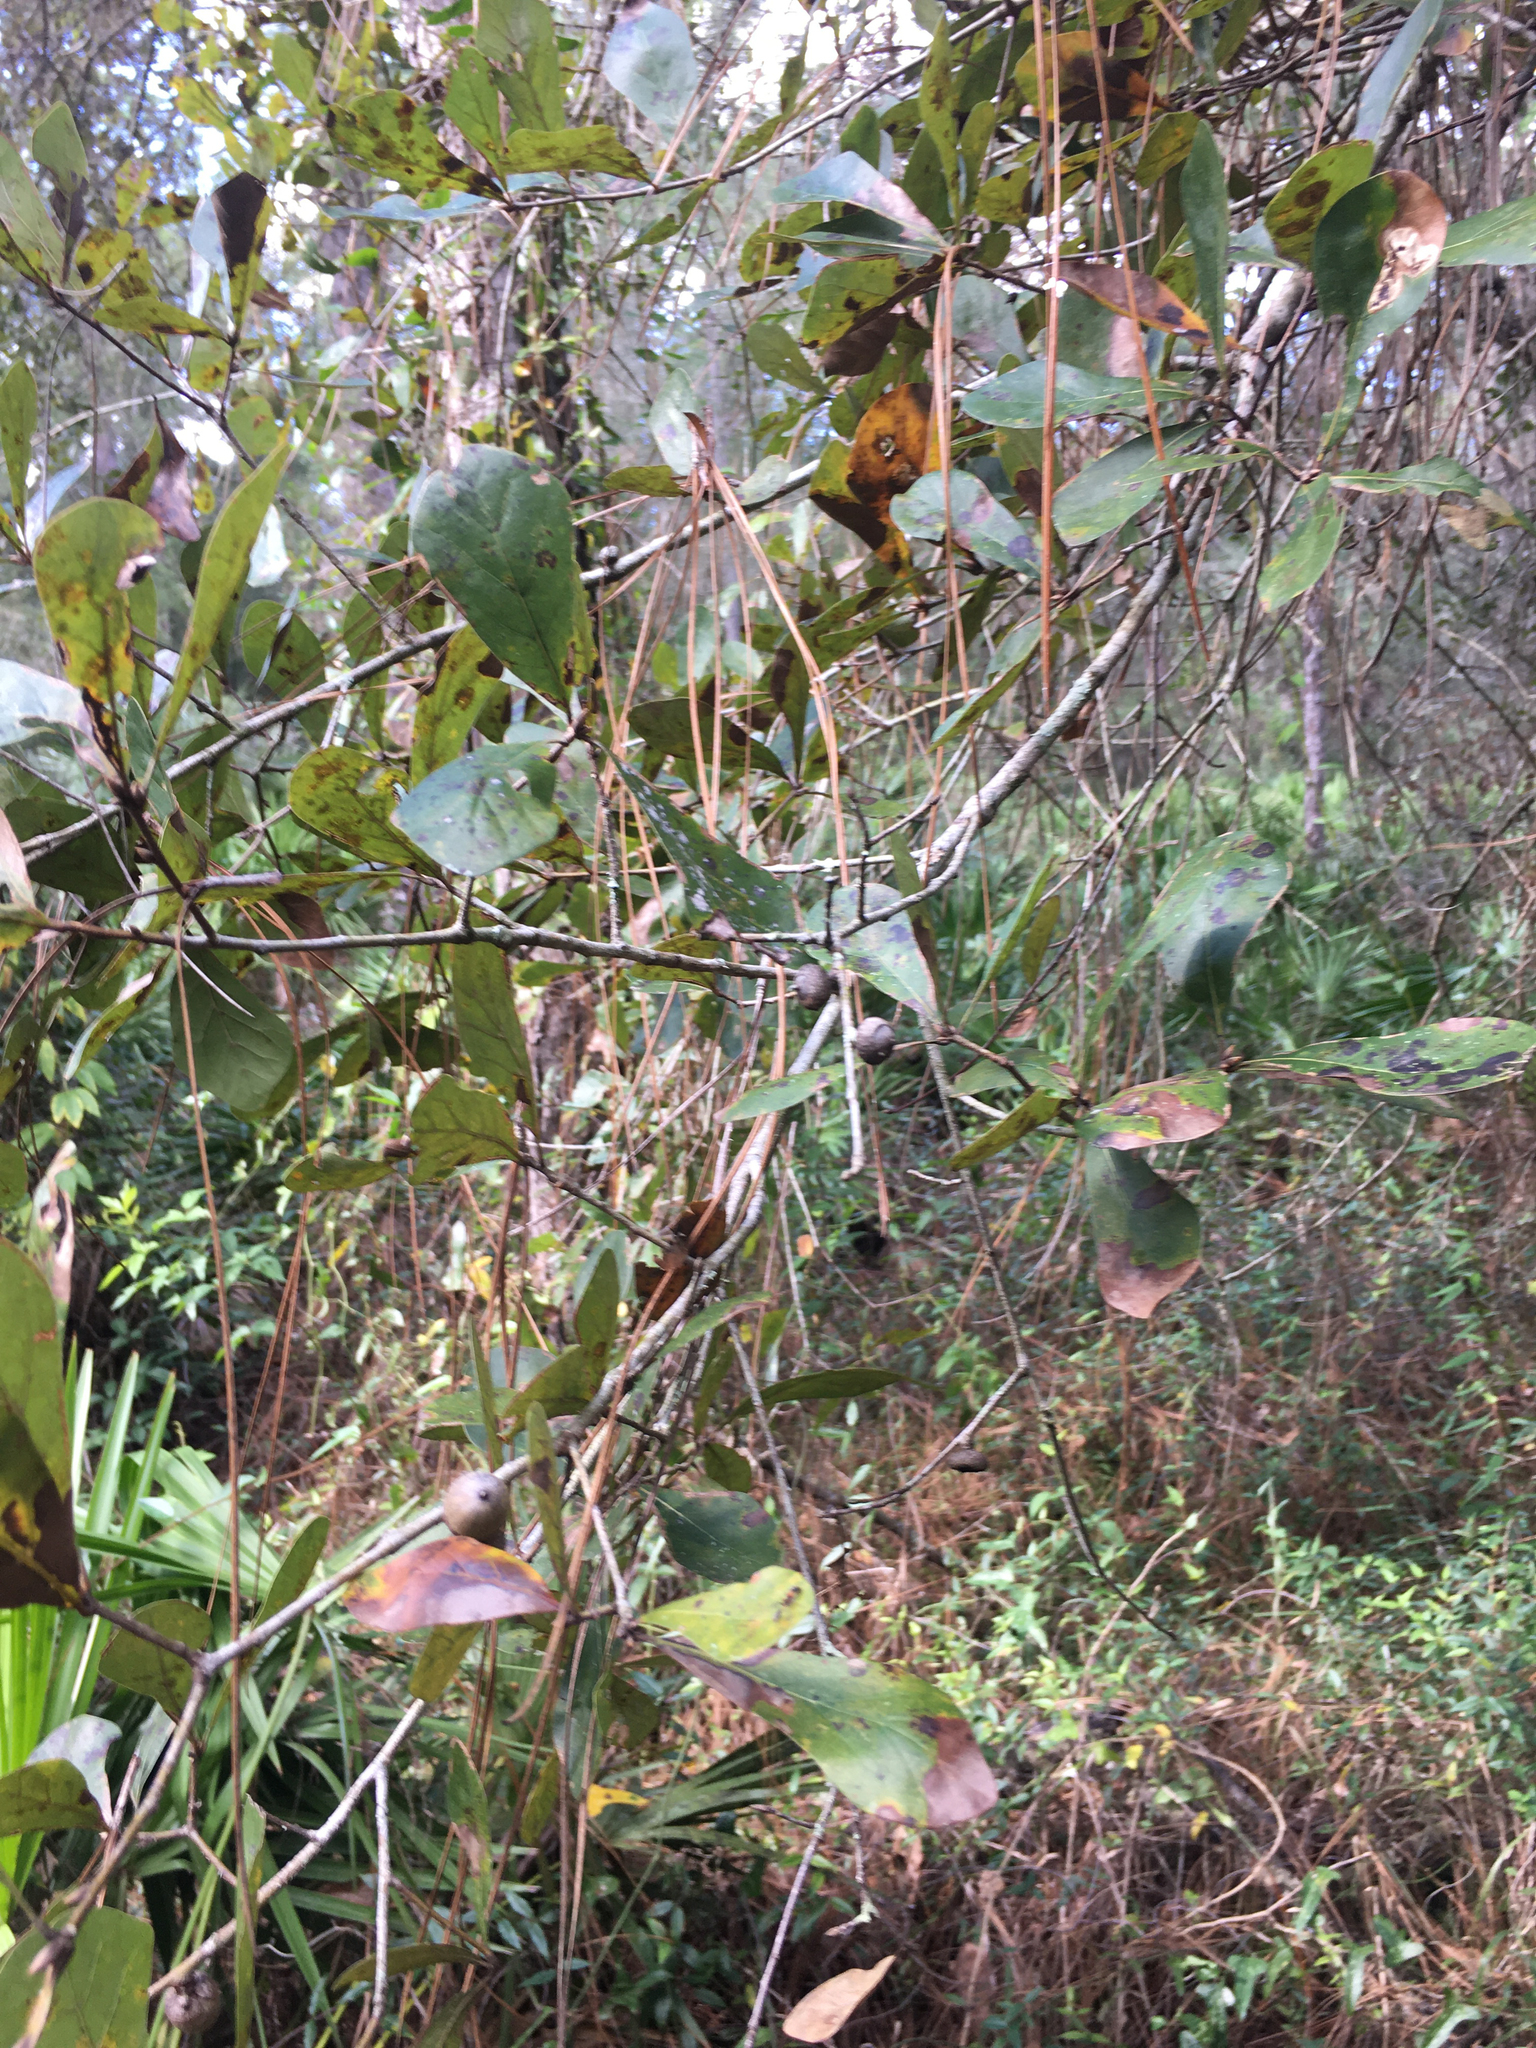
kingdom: Plantae
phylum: Tracheophyta
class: Magnoliopsida
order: Fagales
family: Fagaceae
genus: Quercus
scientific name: Quercus nigra
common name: Water oak
